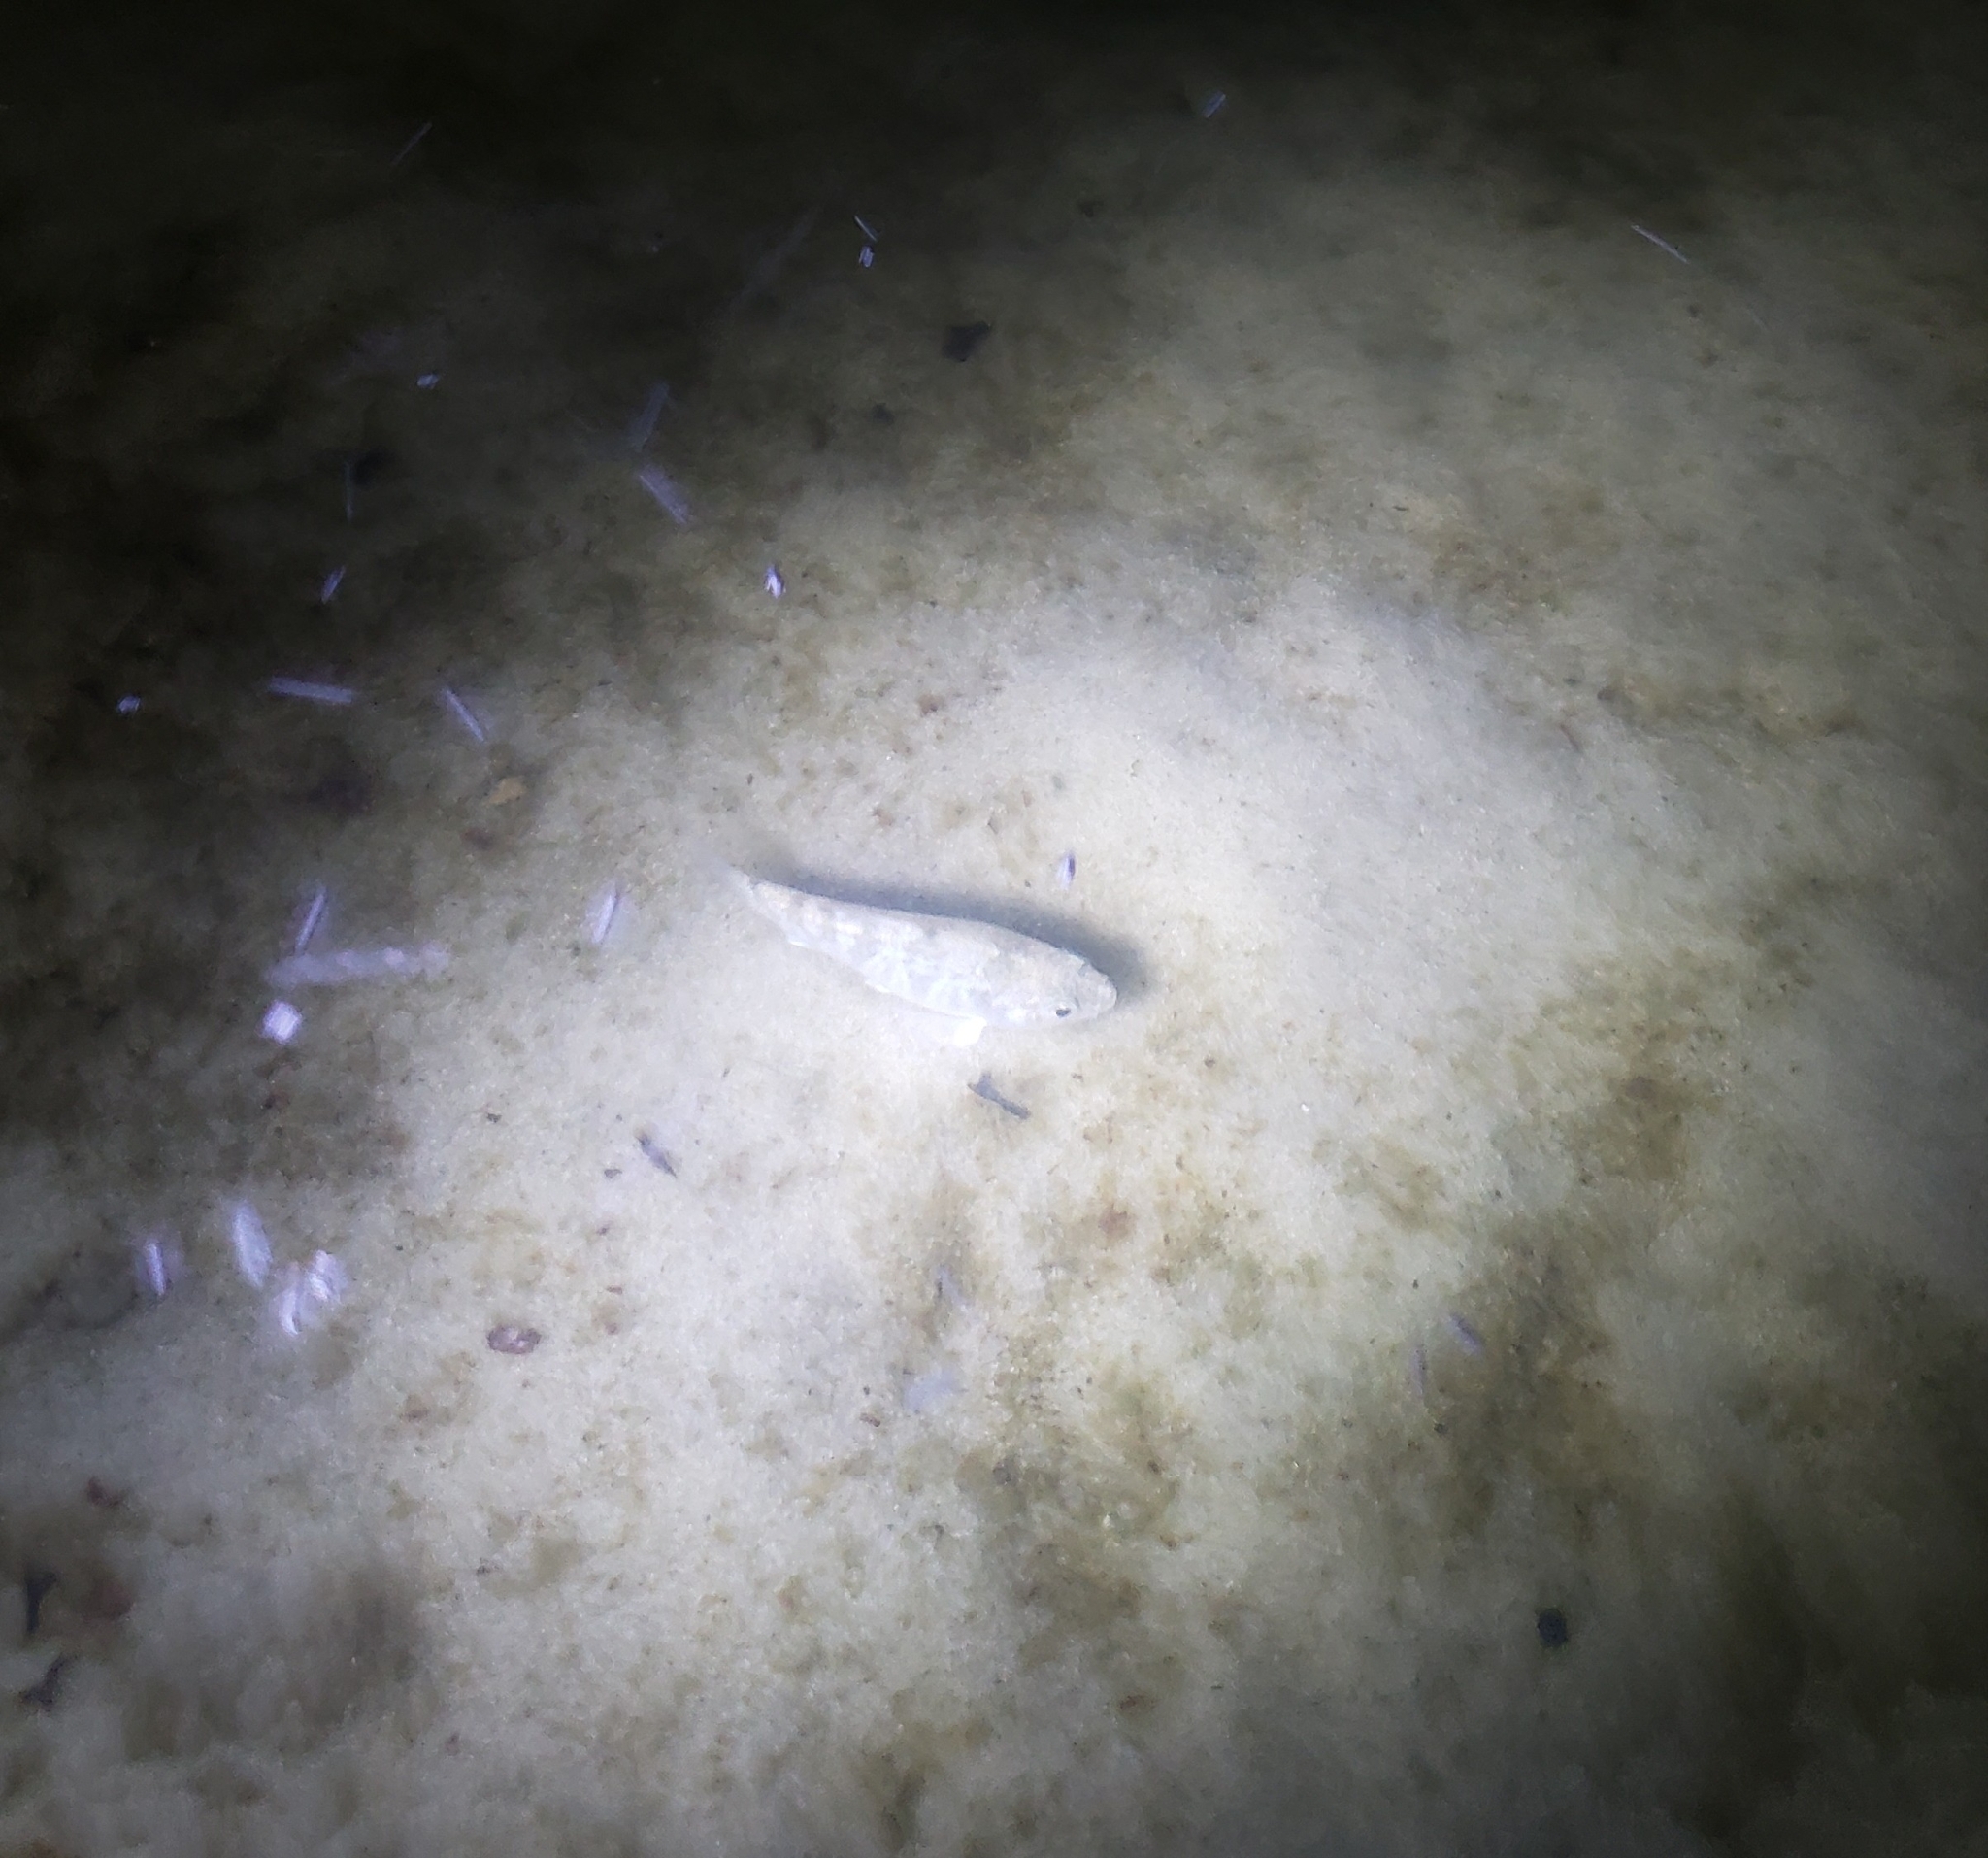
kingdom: Animalia
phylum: Chordata
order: Cyprinodontiformes
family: Cyprinodontidae
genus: Cyprinodon
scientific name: Cyprinodon variegatus
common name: Sheepshead minnow
